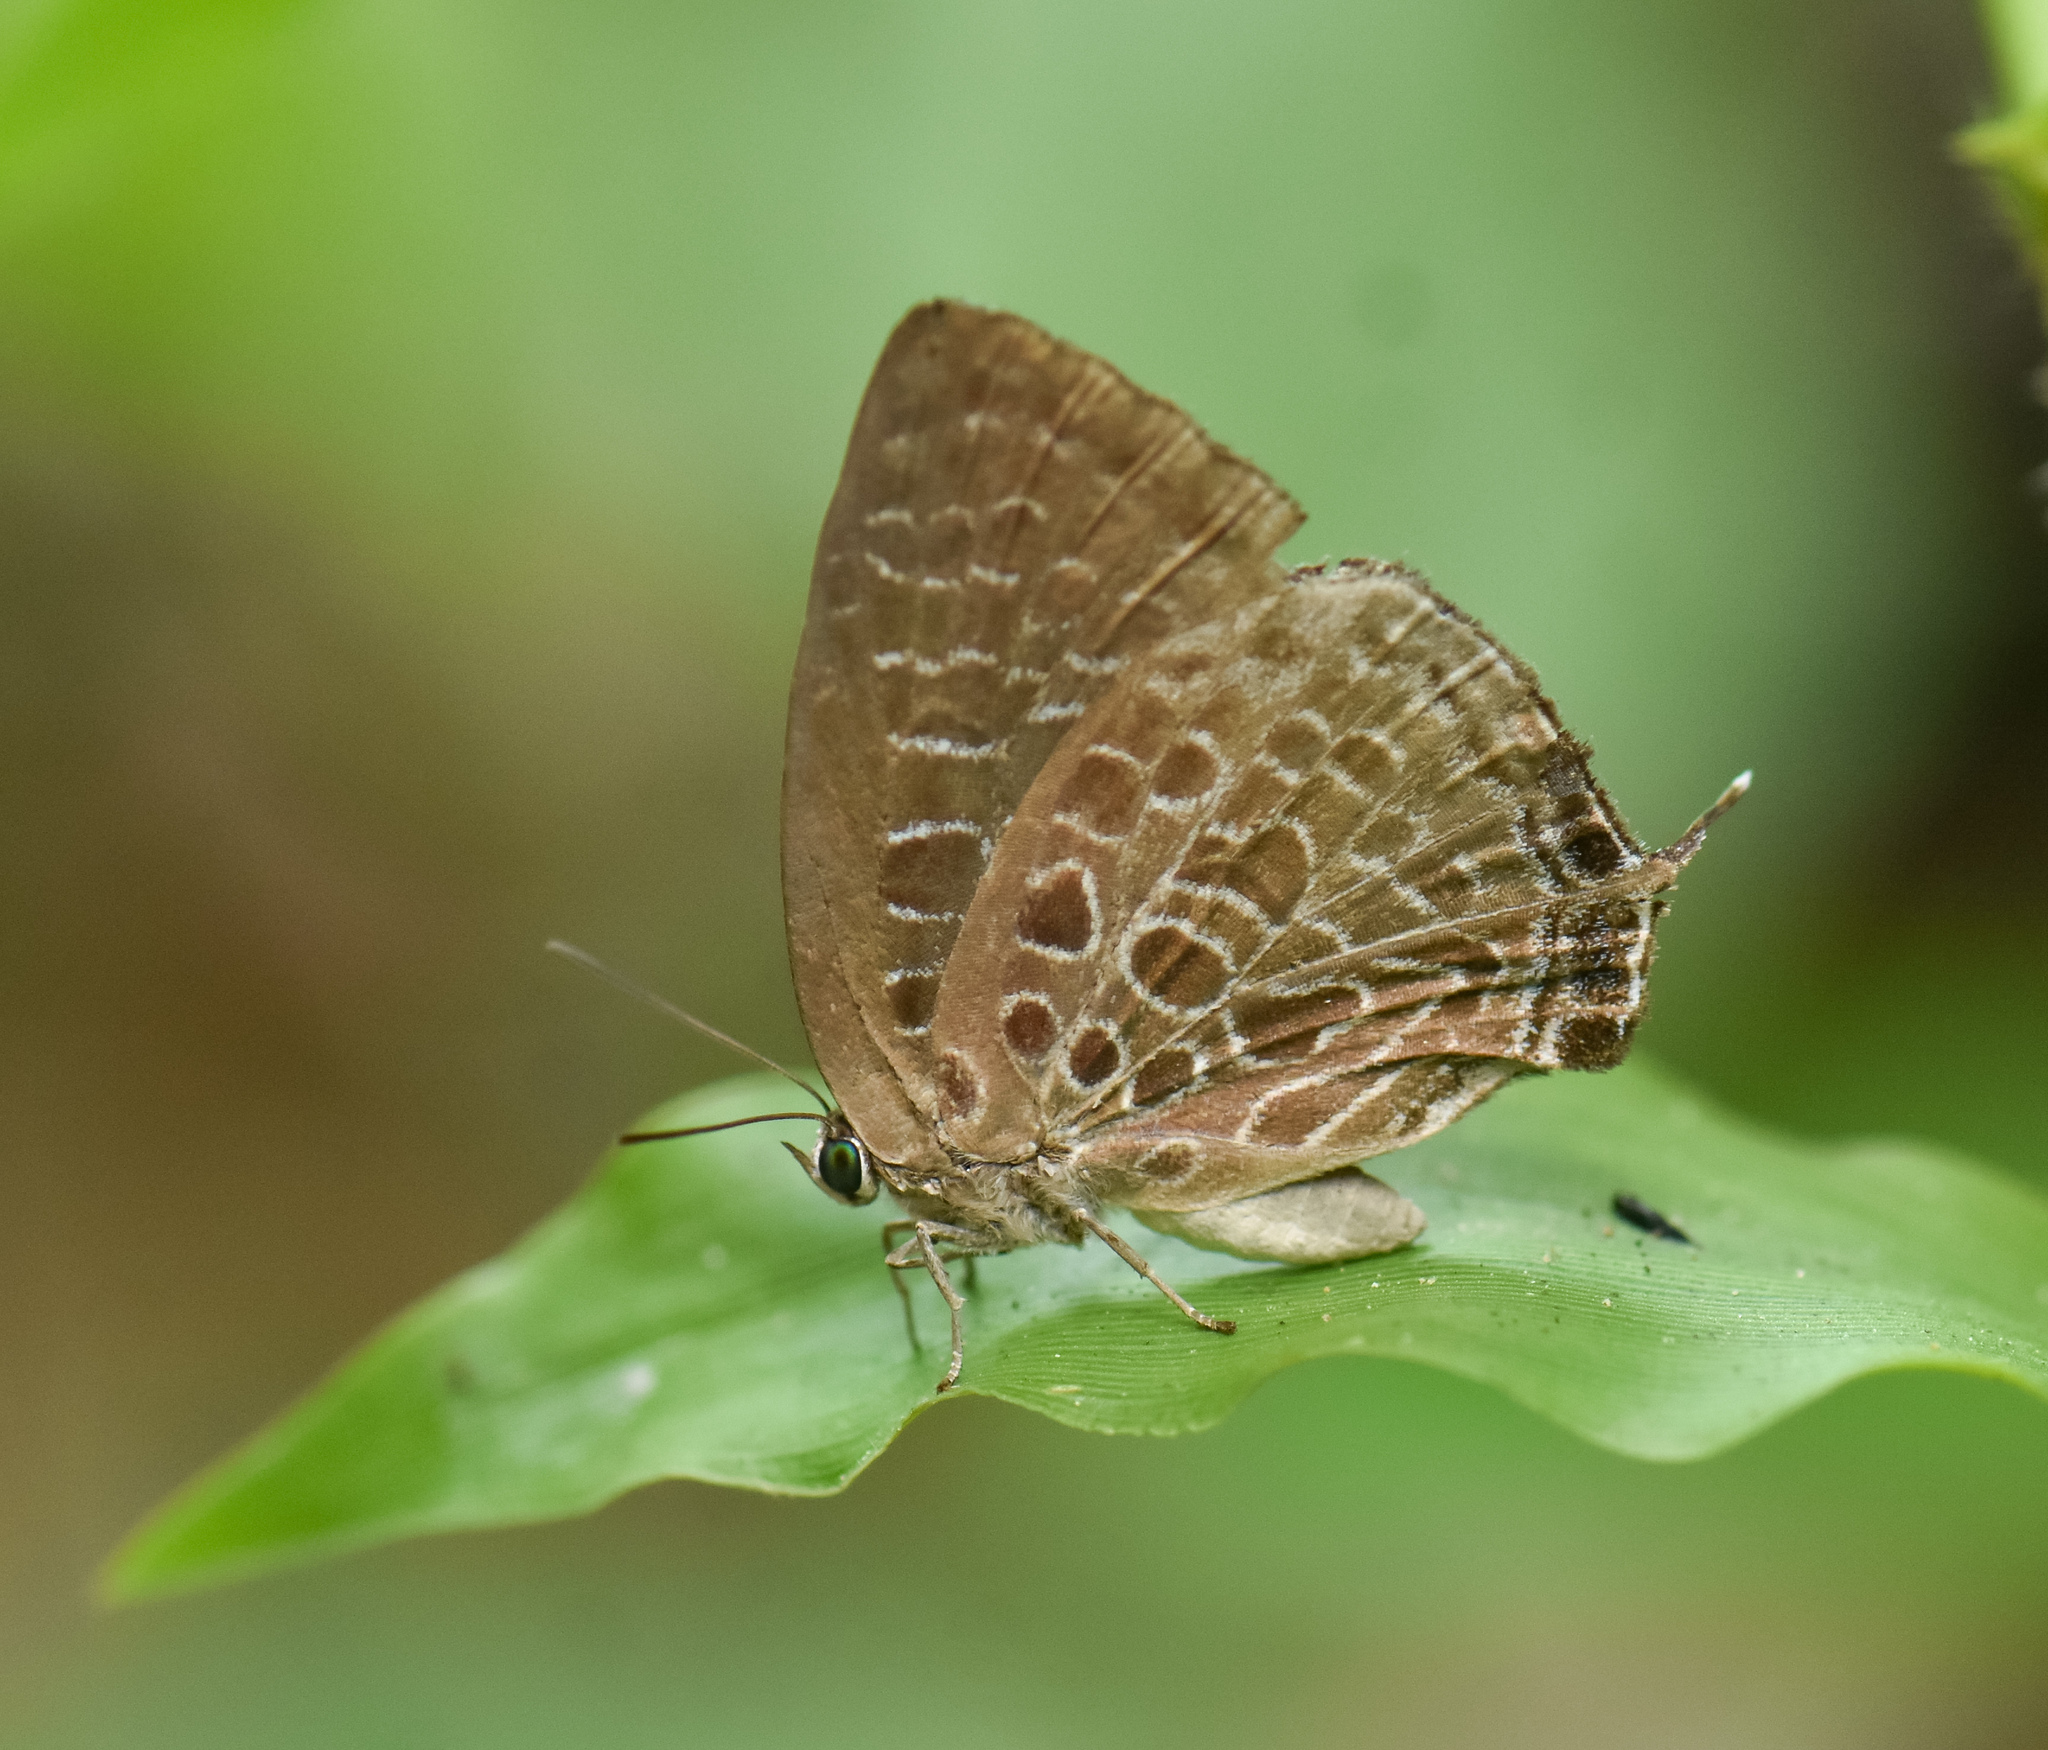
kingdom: Animalia
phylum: Arthropoda
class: Insecta
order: Lepidoptera
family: Lycaenidae
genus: Arhopala
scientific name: Arhopala dispar
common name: Frosted oakblue
